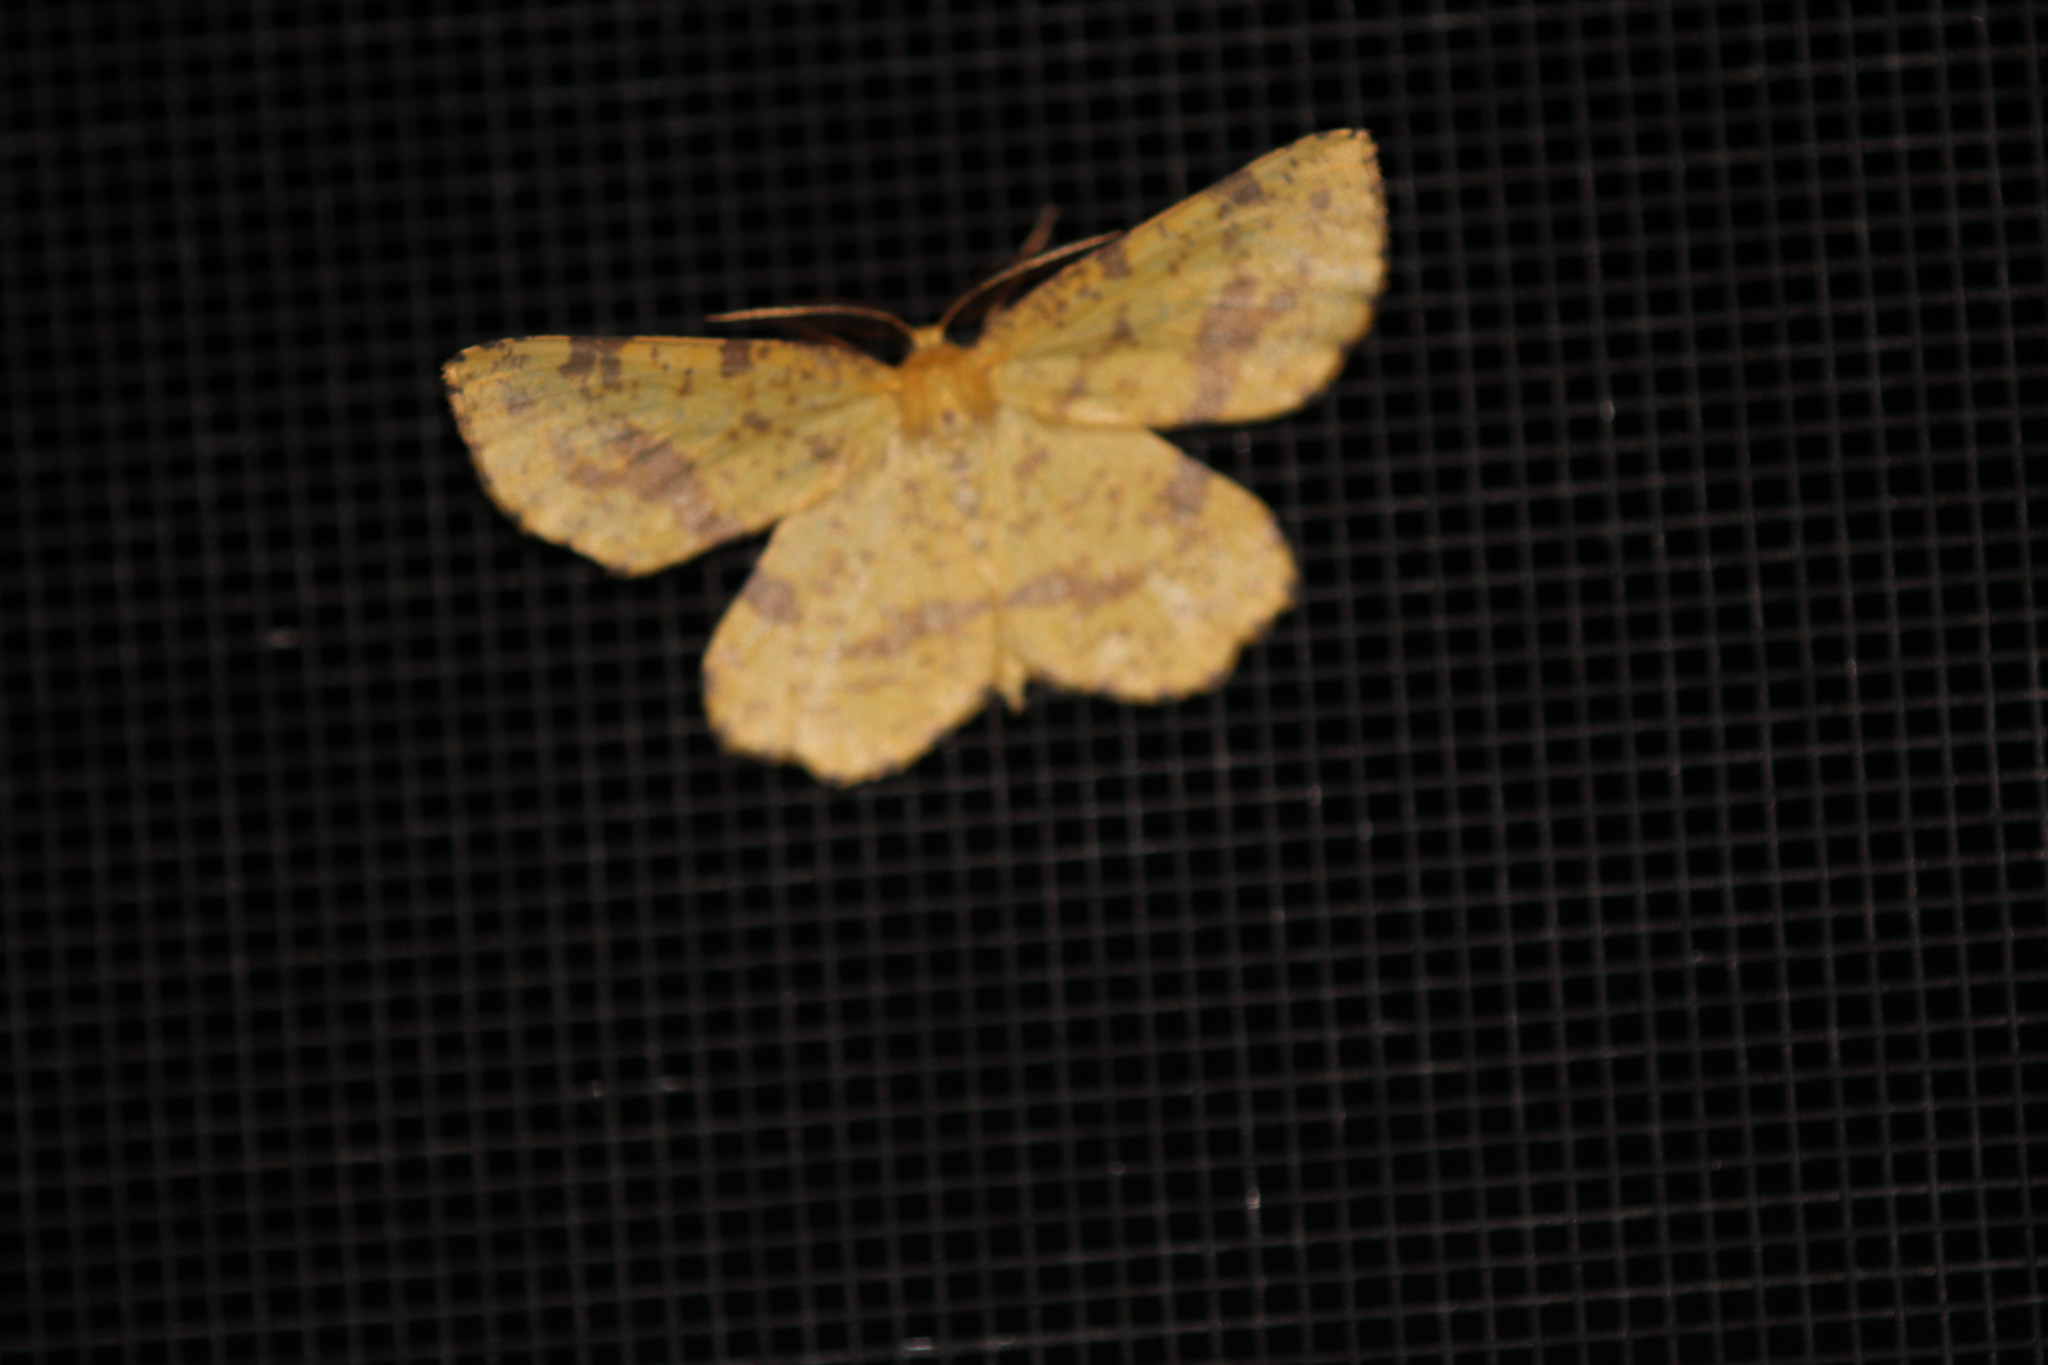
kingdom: Animalia
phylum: Arthropoda
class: Insecta
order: Lepidoptera
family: Geometridae
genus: Xanthotype
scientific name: Xanthotype
